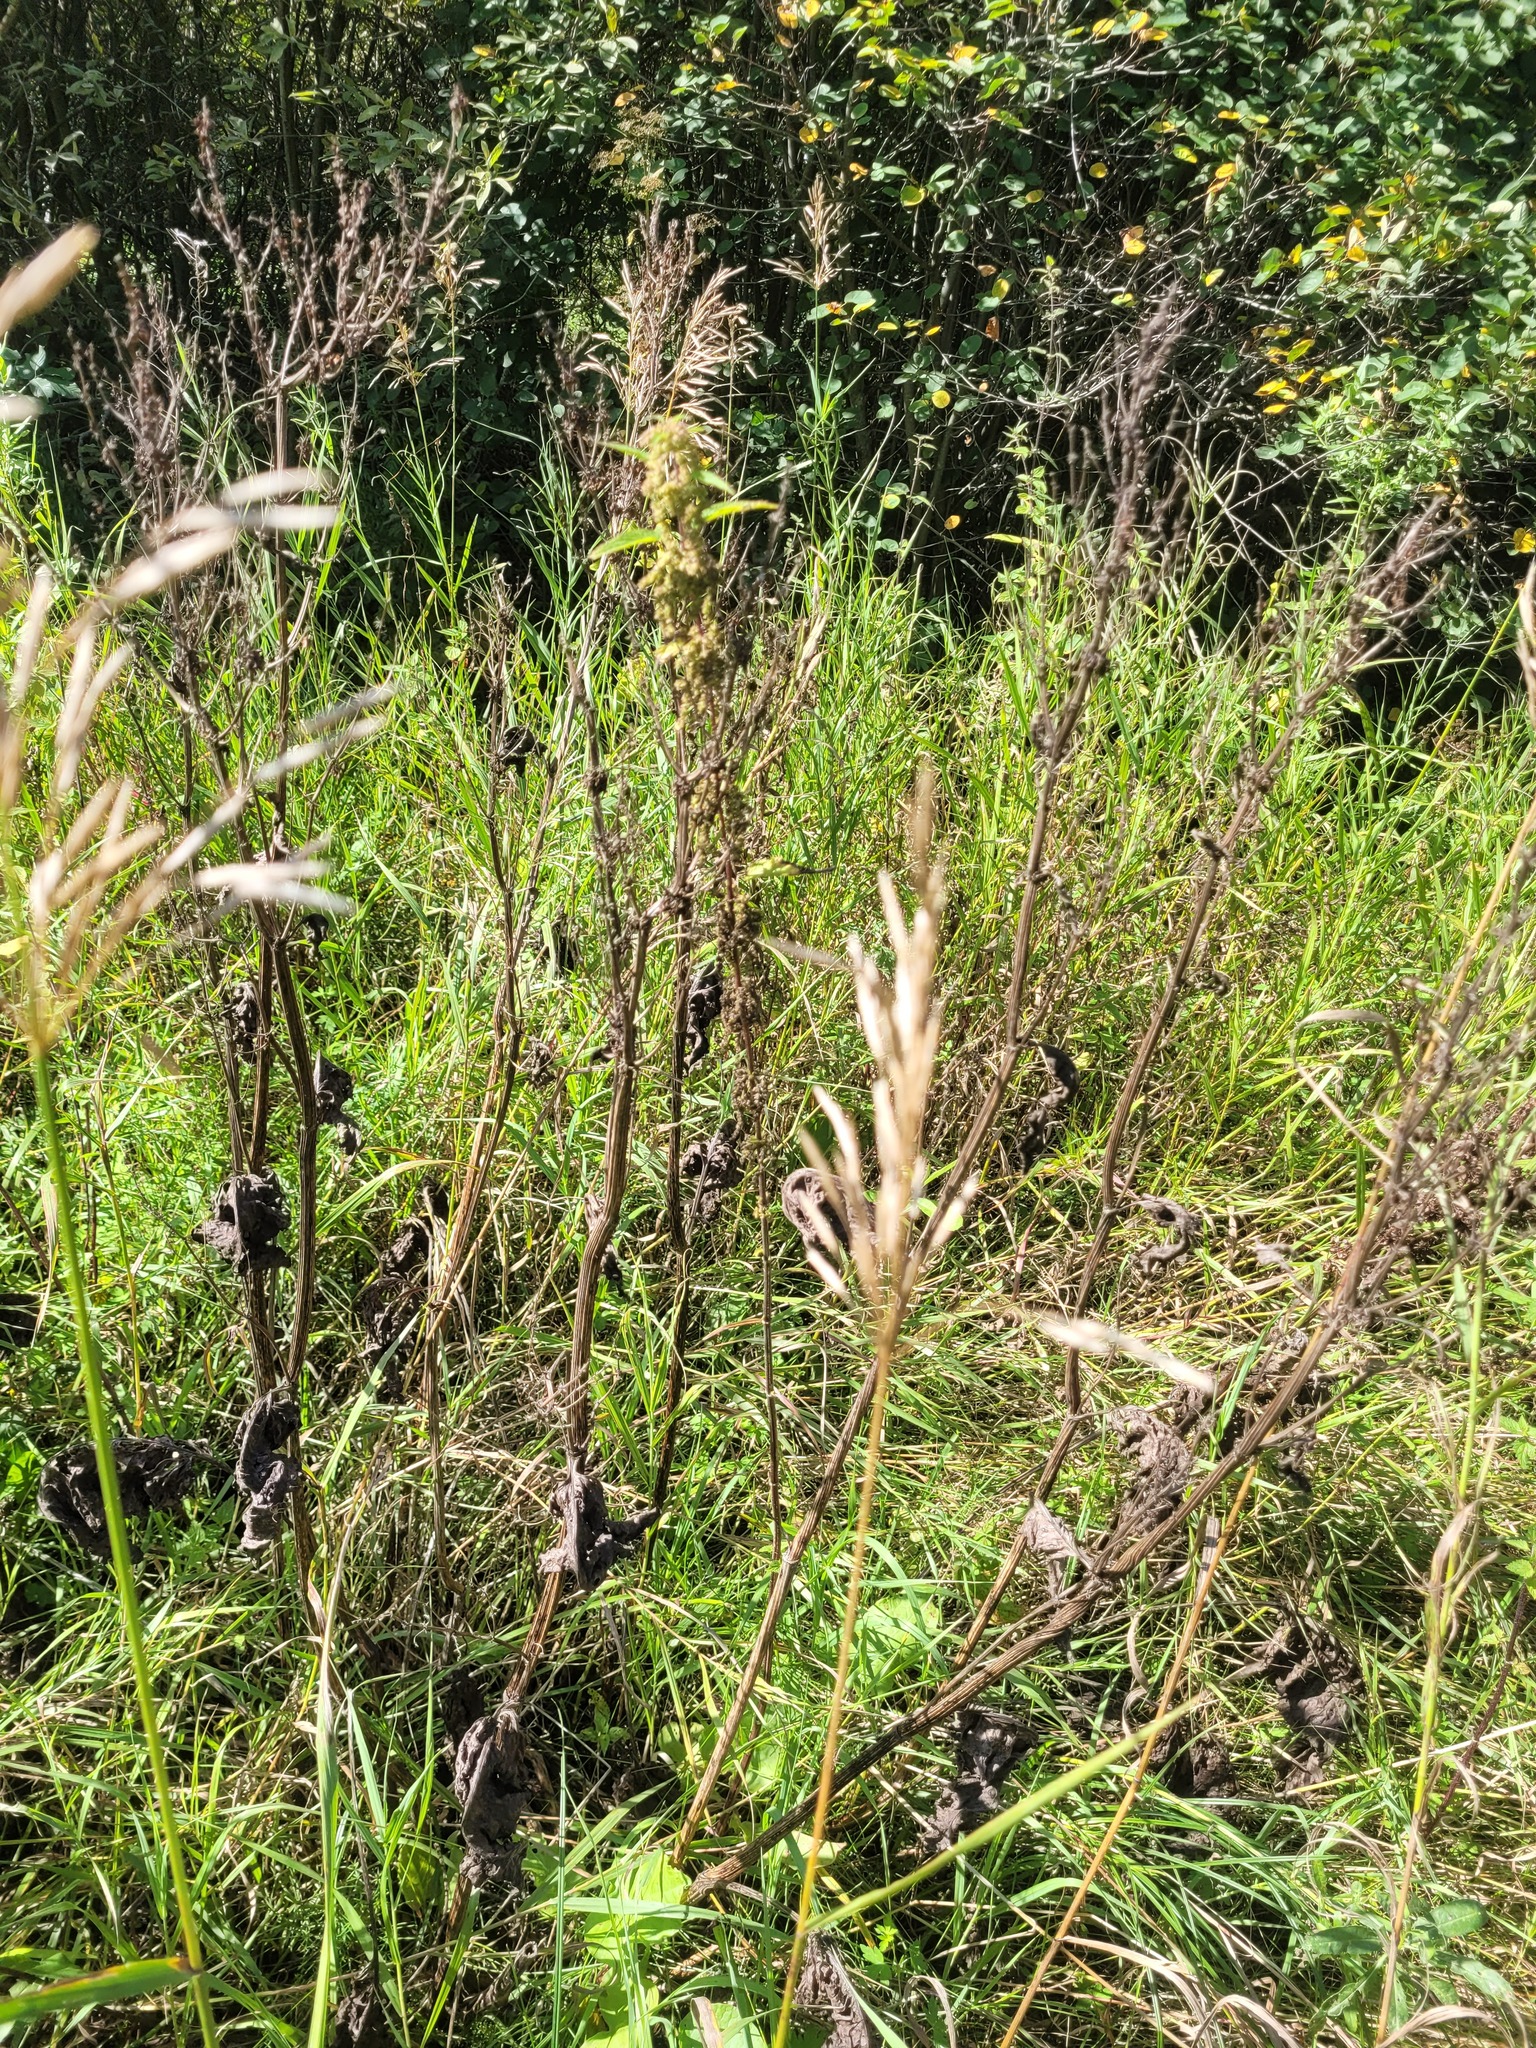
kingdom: Plantae
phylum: Tracheophyta
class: Magnoliopsida
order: Caryophyllales
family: Polygonaceae
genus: Rumex
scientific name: Rumex confertus
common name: Russian dock
